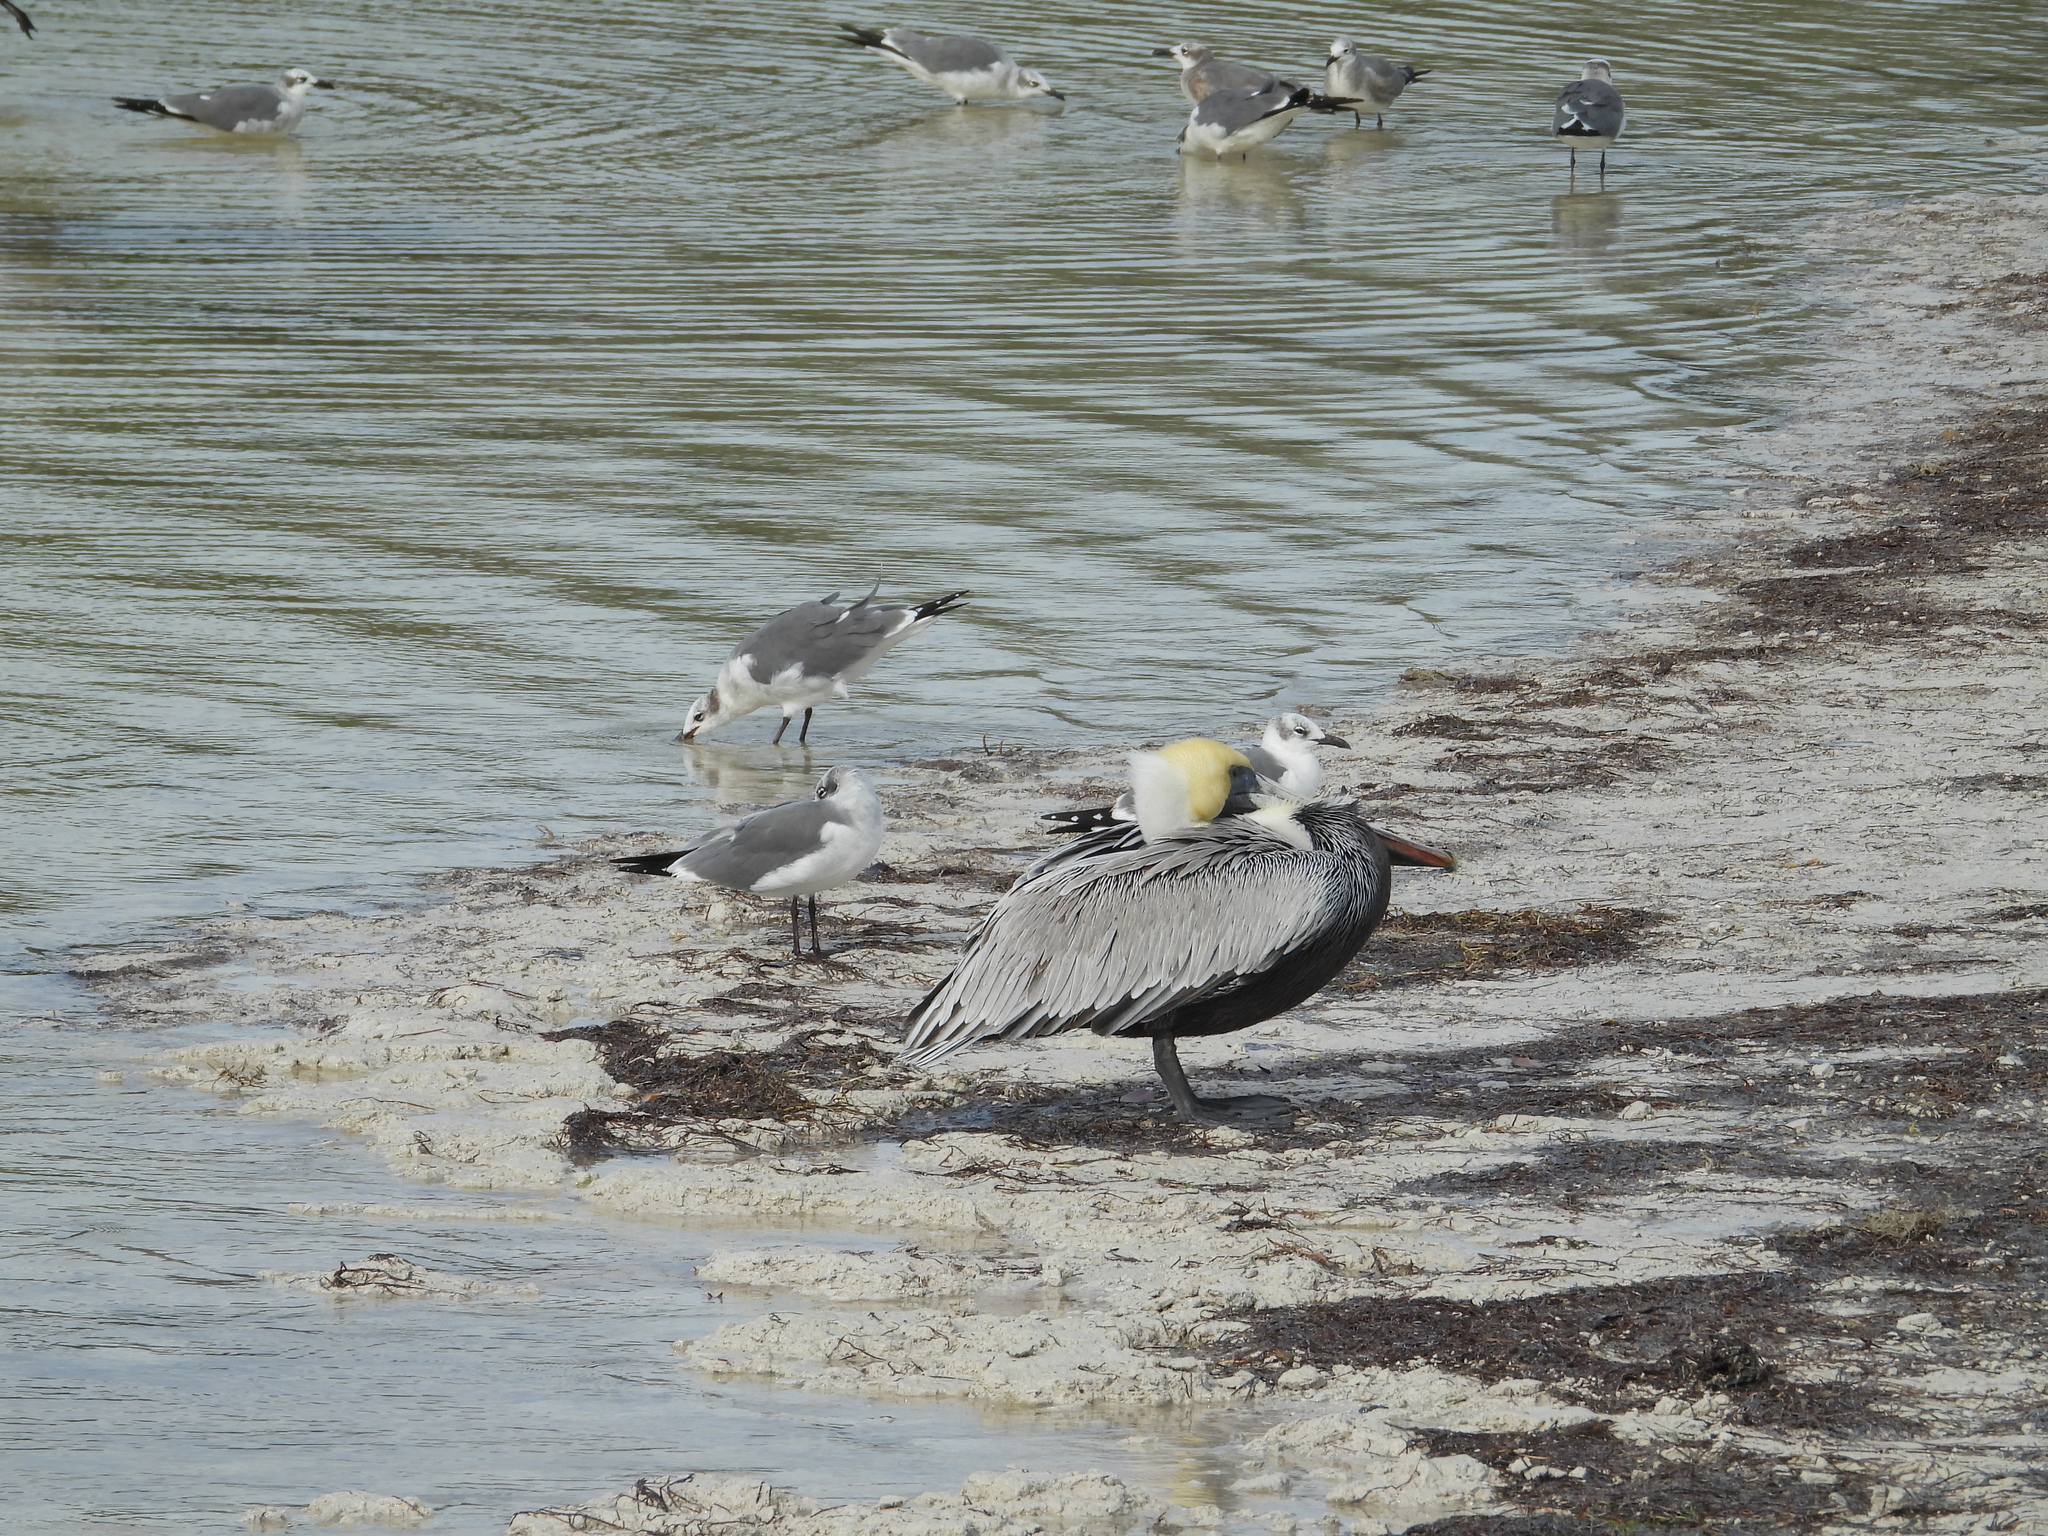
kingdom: Animalia
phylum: Chordata
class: Aves
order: Pelecaniformes
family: Pelecanidae
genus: Pelecanus
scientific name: Pelecanus occidentalis
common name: Brown pelican
